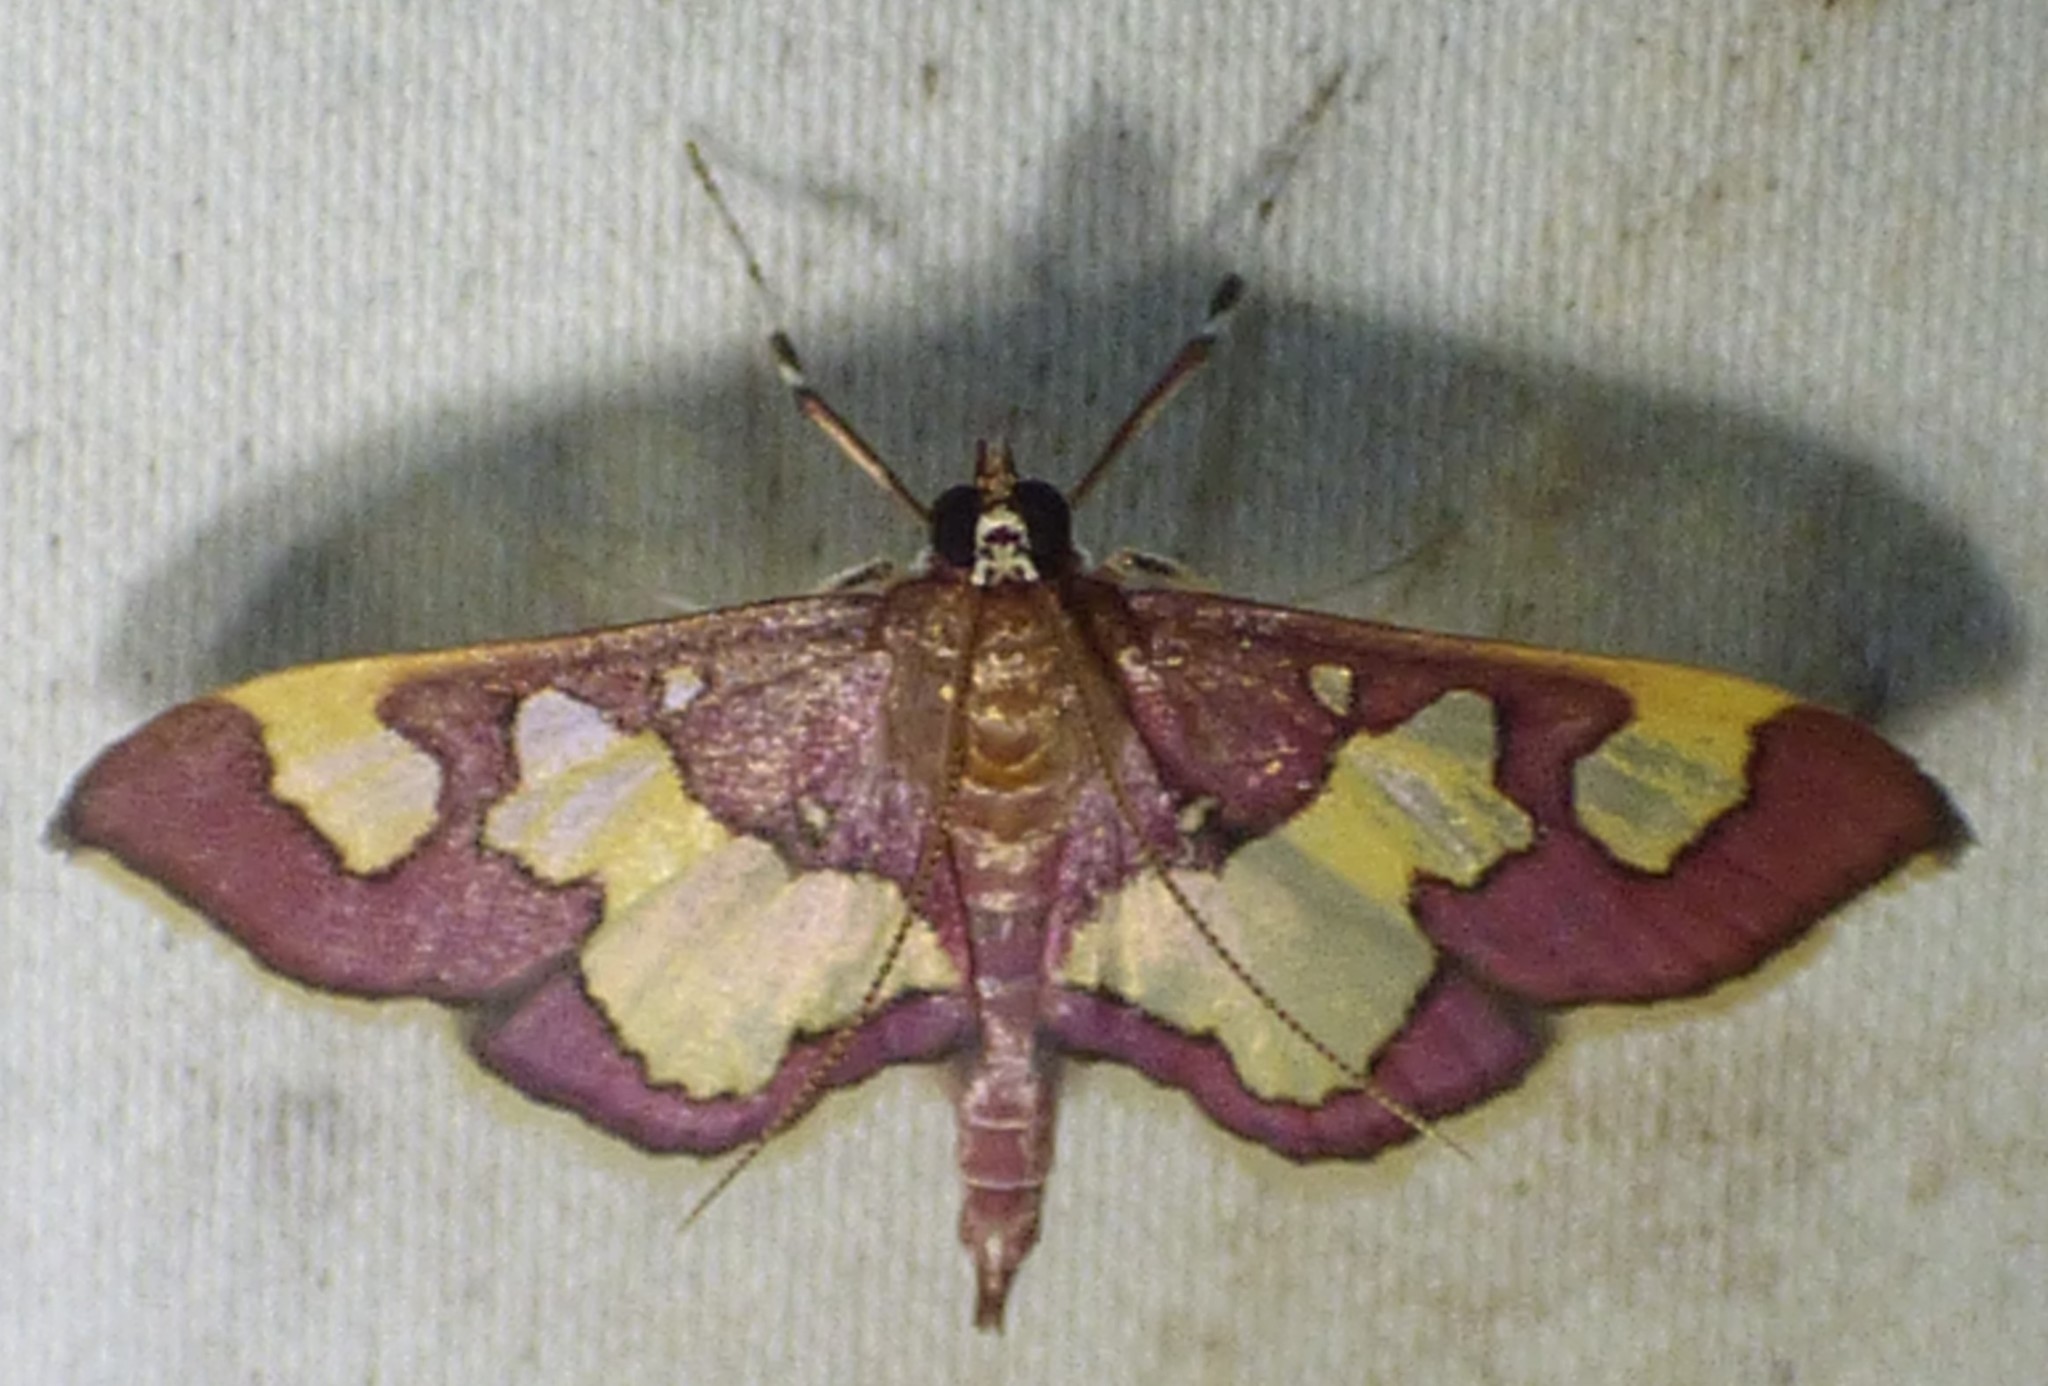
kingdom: Animalia
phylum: Arthropoda
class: Insecta
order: Lepidoptera
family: Crambidae
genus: Colomychus
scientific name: Colomychus talis
